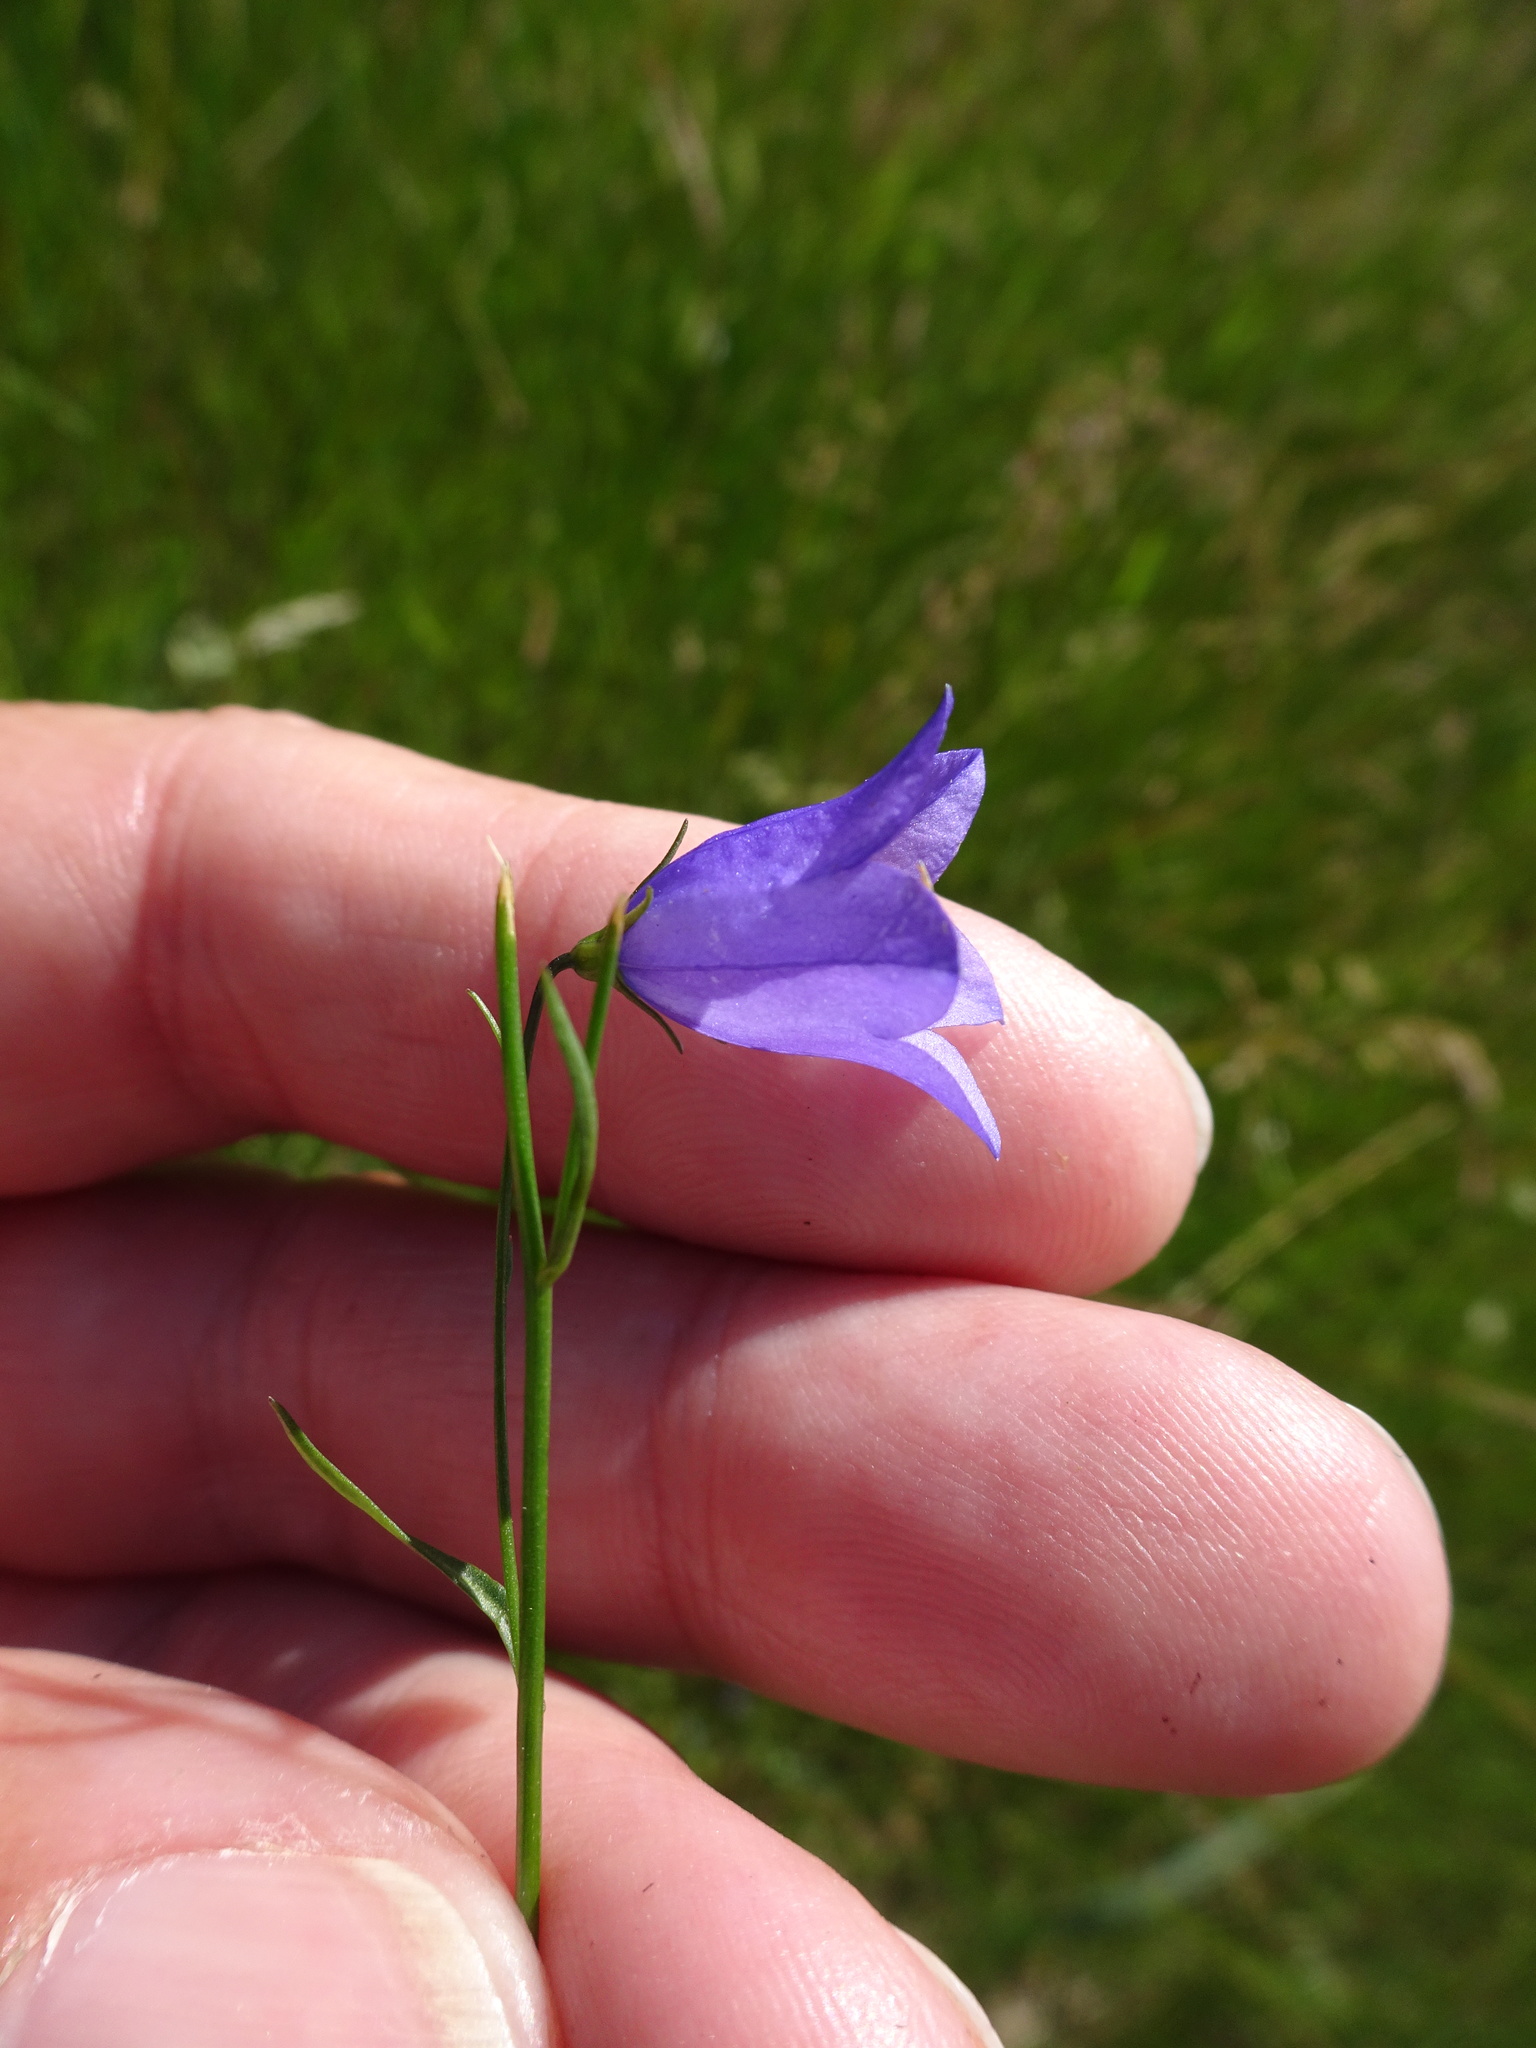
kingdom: Plantae
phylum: Tracheophyta
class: Magnoliopsida
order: Asterales
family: Campanulaceae
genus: Campanula
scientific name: Campanula rotundifolia
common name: Harebell
